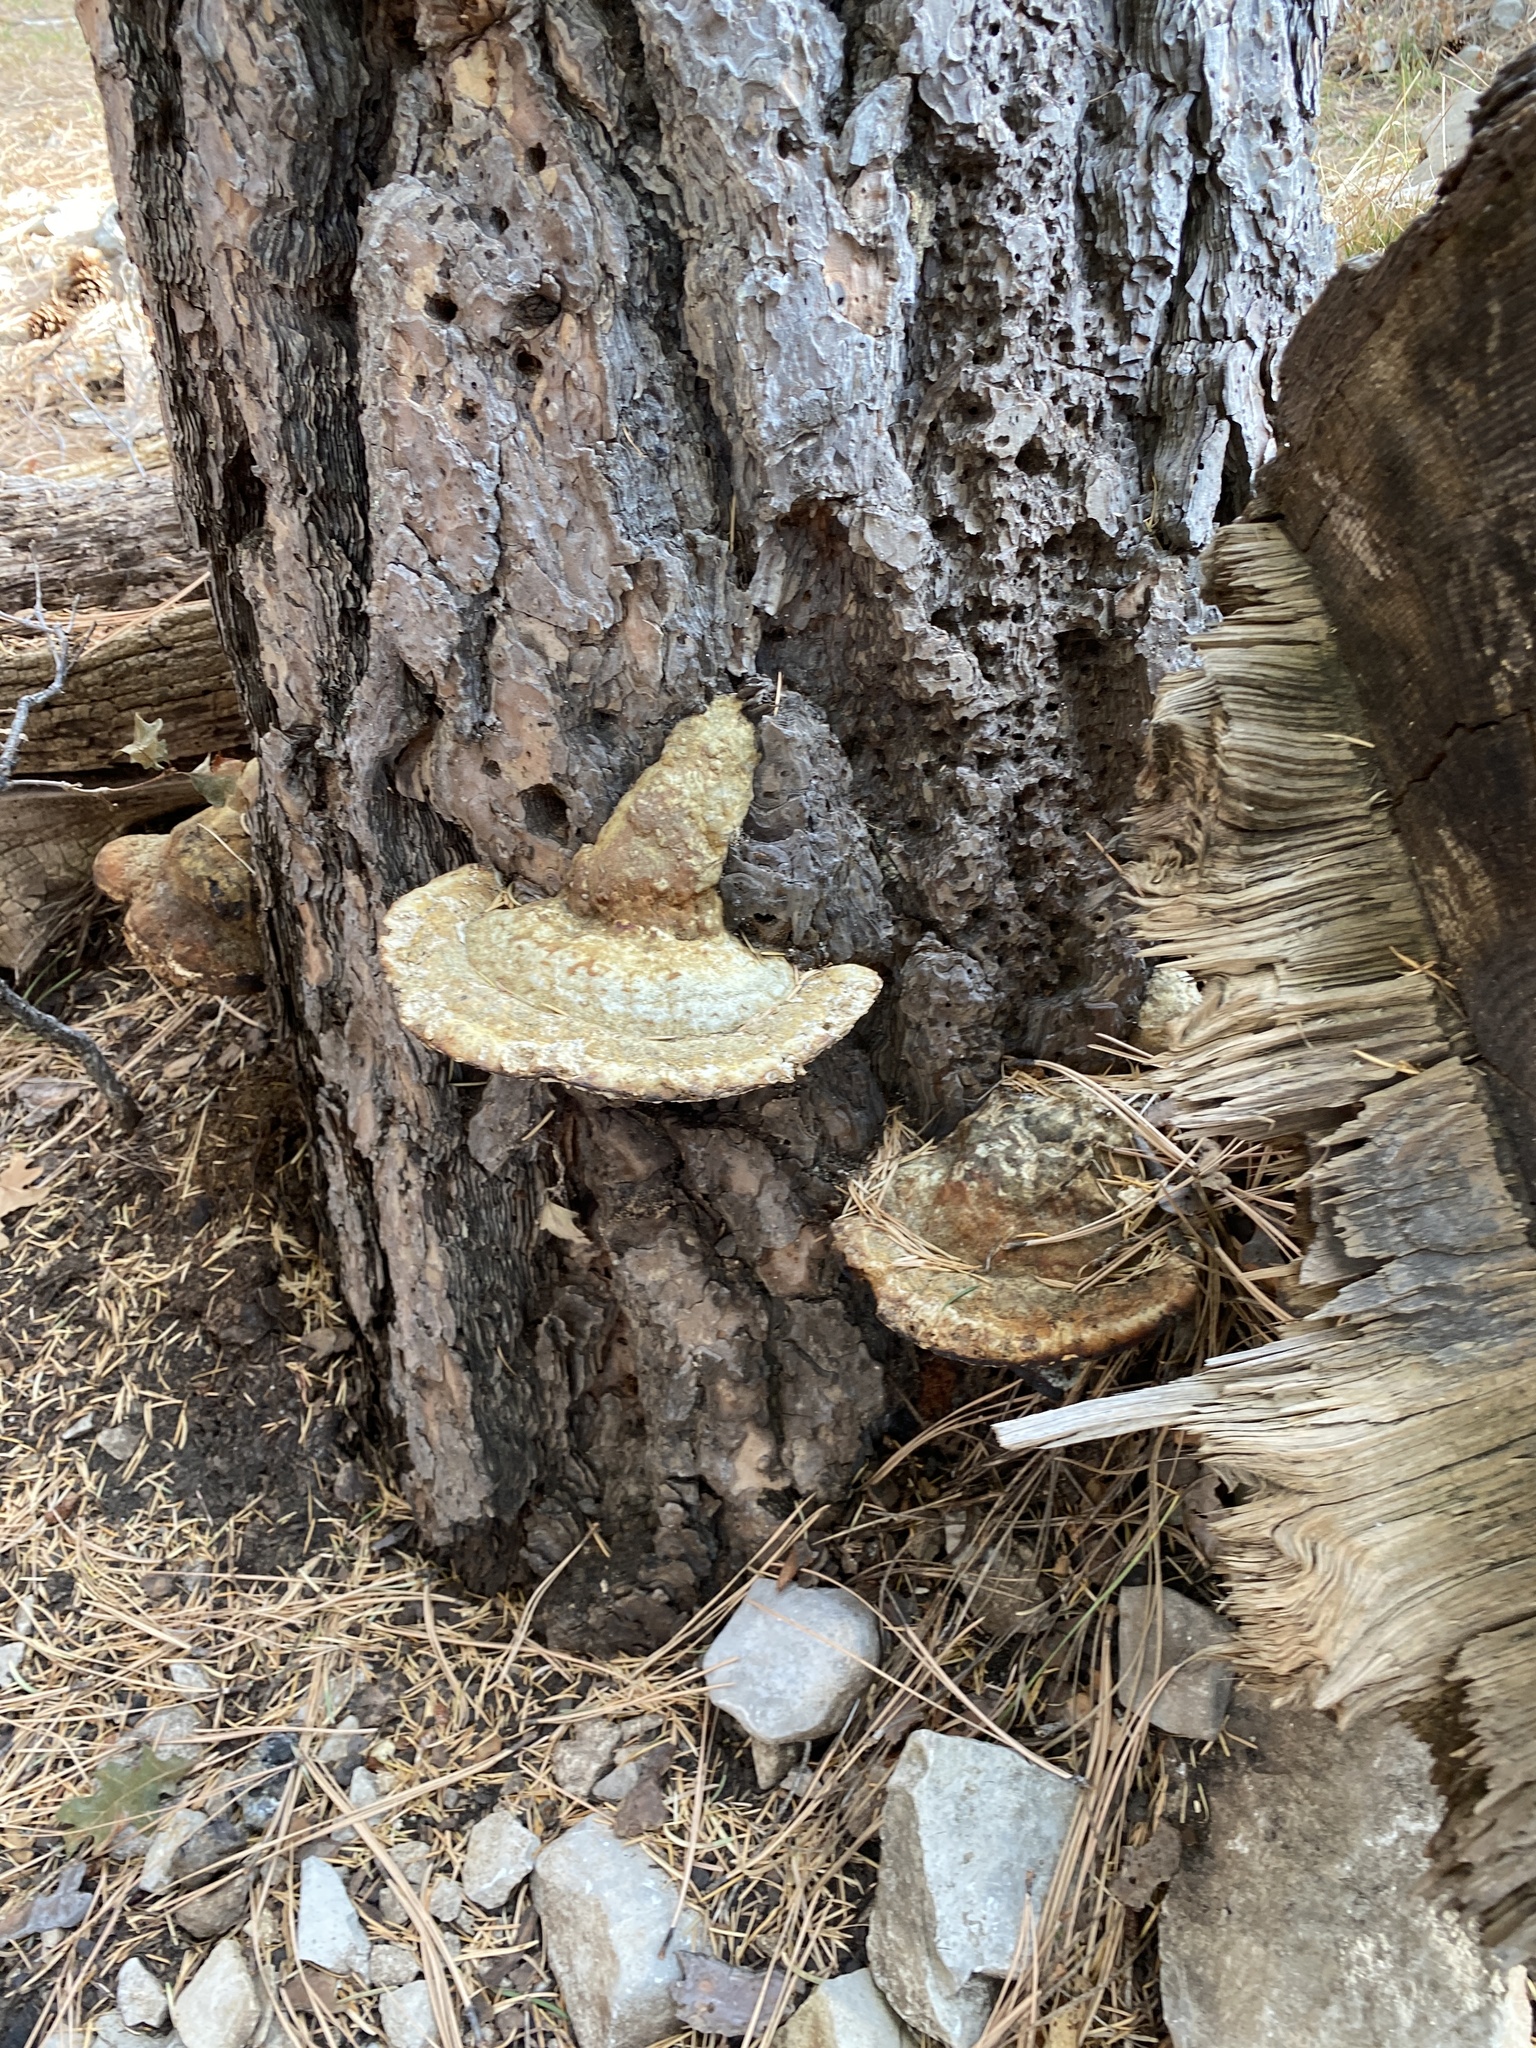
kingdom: Fungi
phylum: Basidiomycota
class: Agaricomycetes
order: Polyporales
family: Fomitopsidaceae
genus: Fomitopsis
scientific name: Fomitopsis schrenkii
